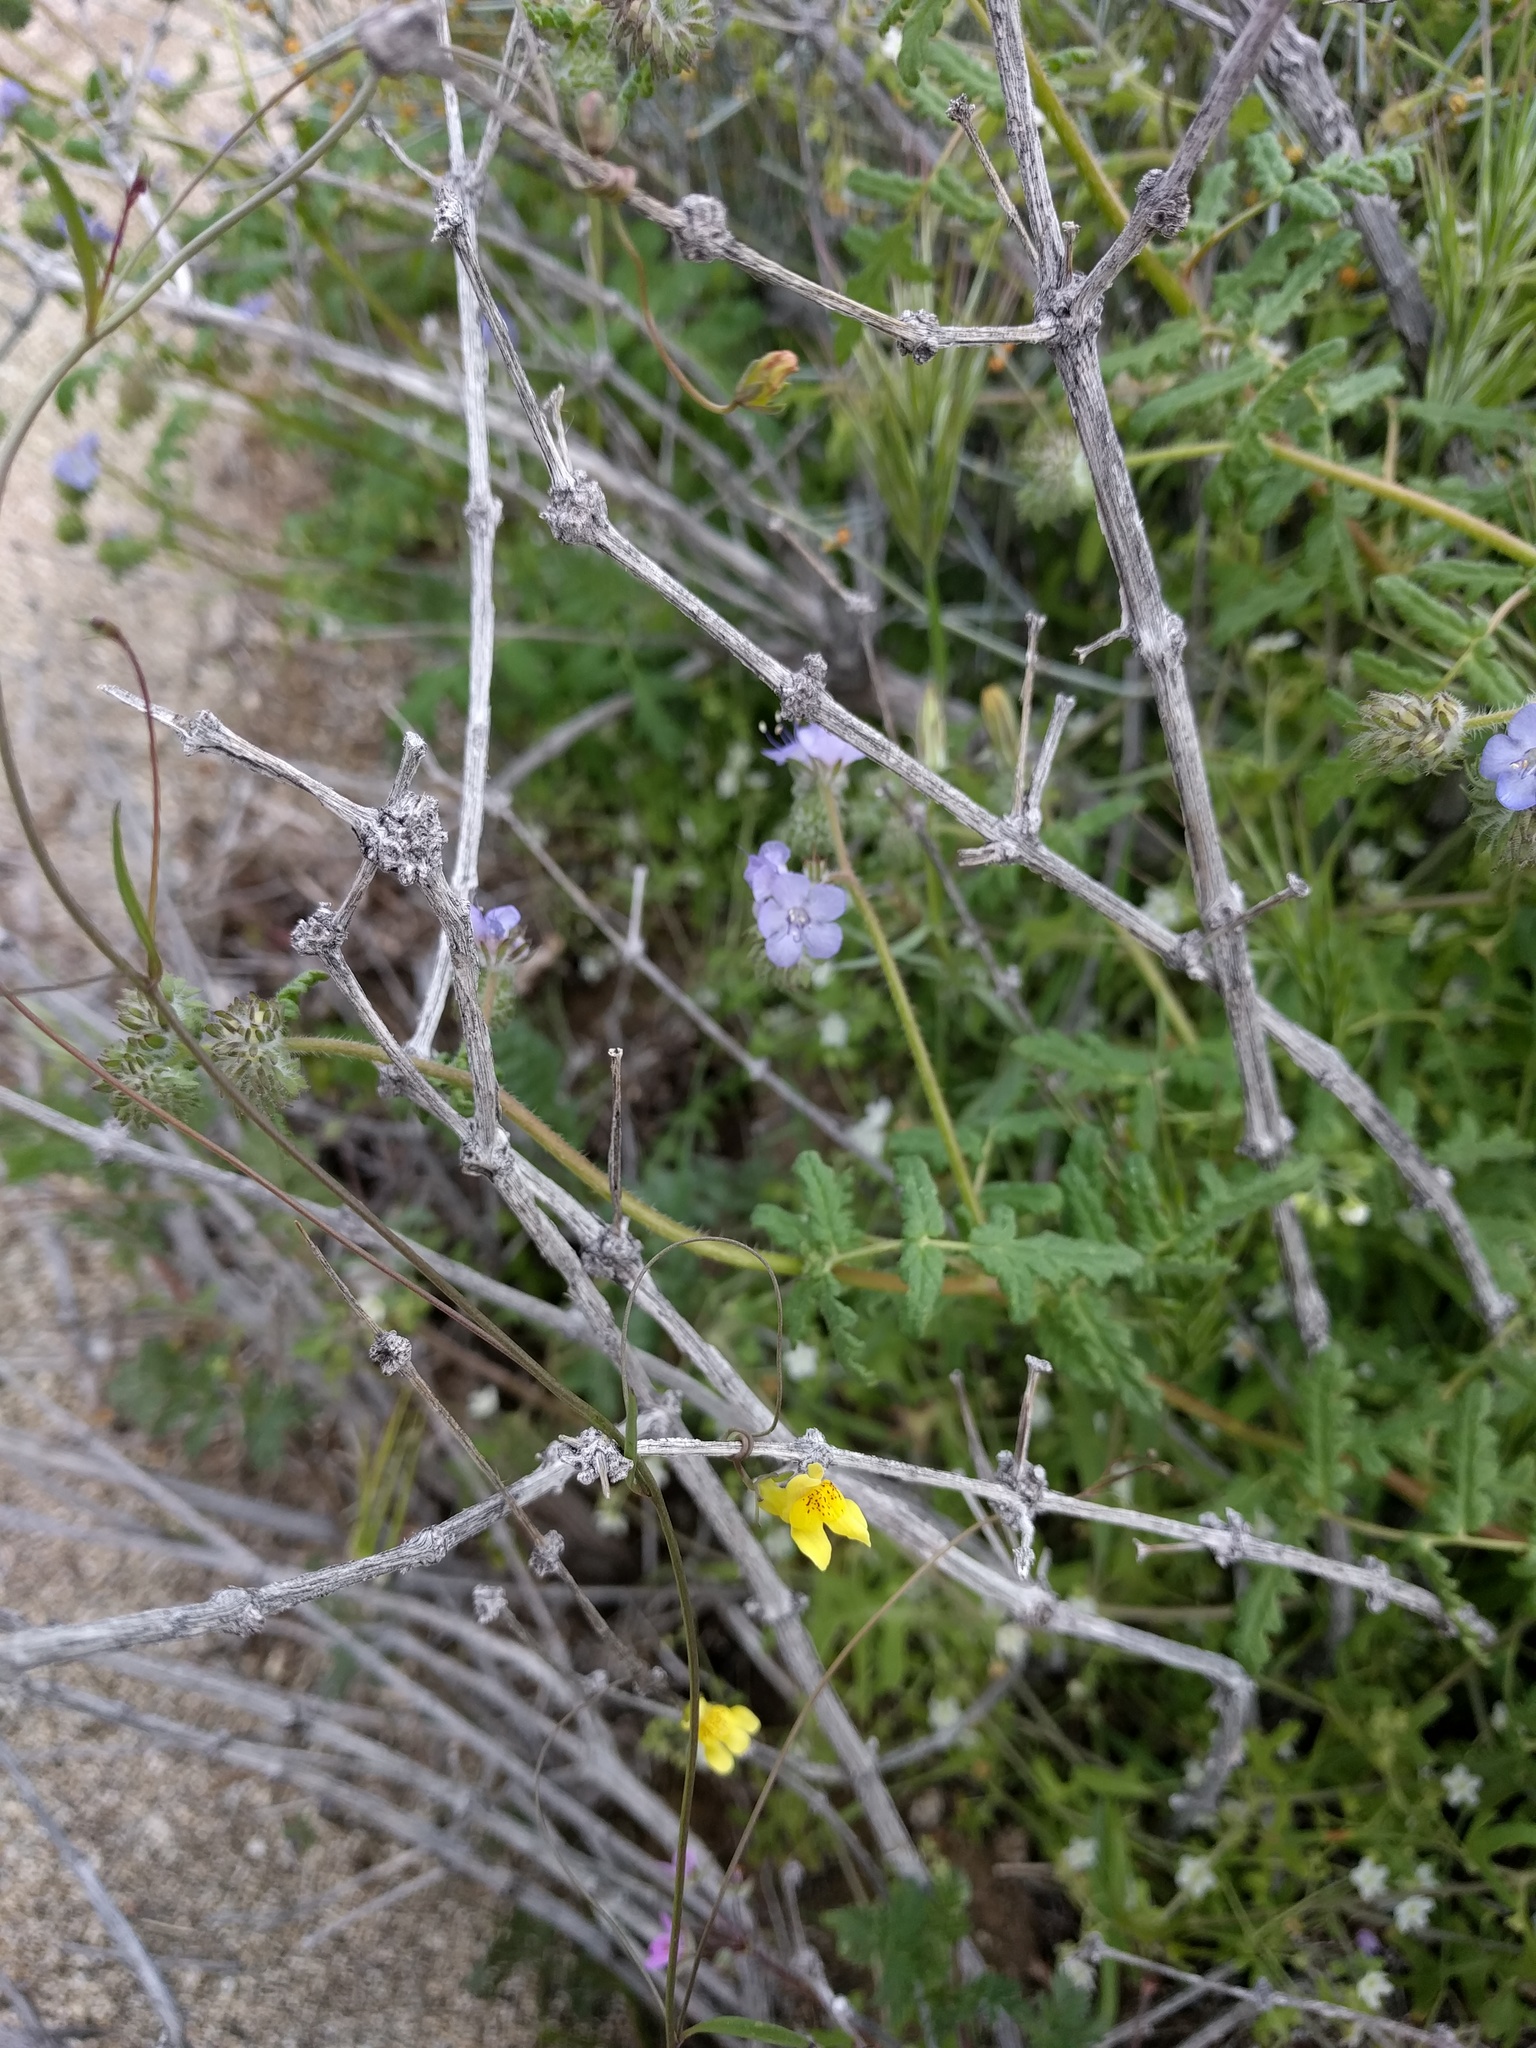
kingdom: Plantae
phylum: Tracheophyta
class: Magnoliopsida
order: Lamiales
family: Plantaginaceae
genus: Neogaerrhinum
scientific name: Neogaerrhinum filipes
